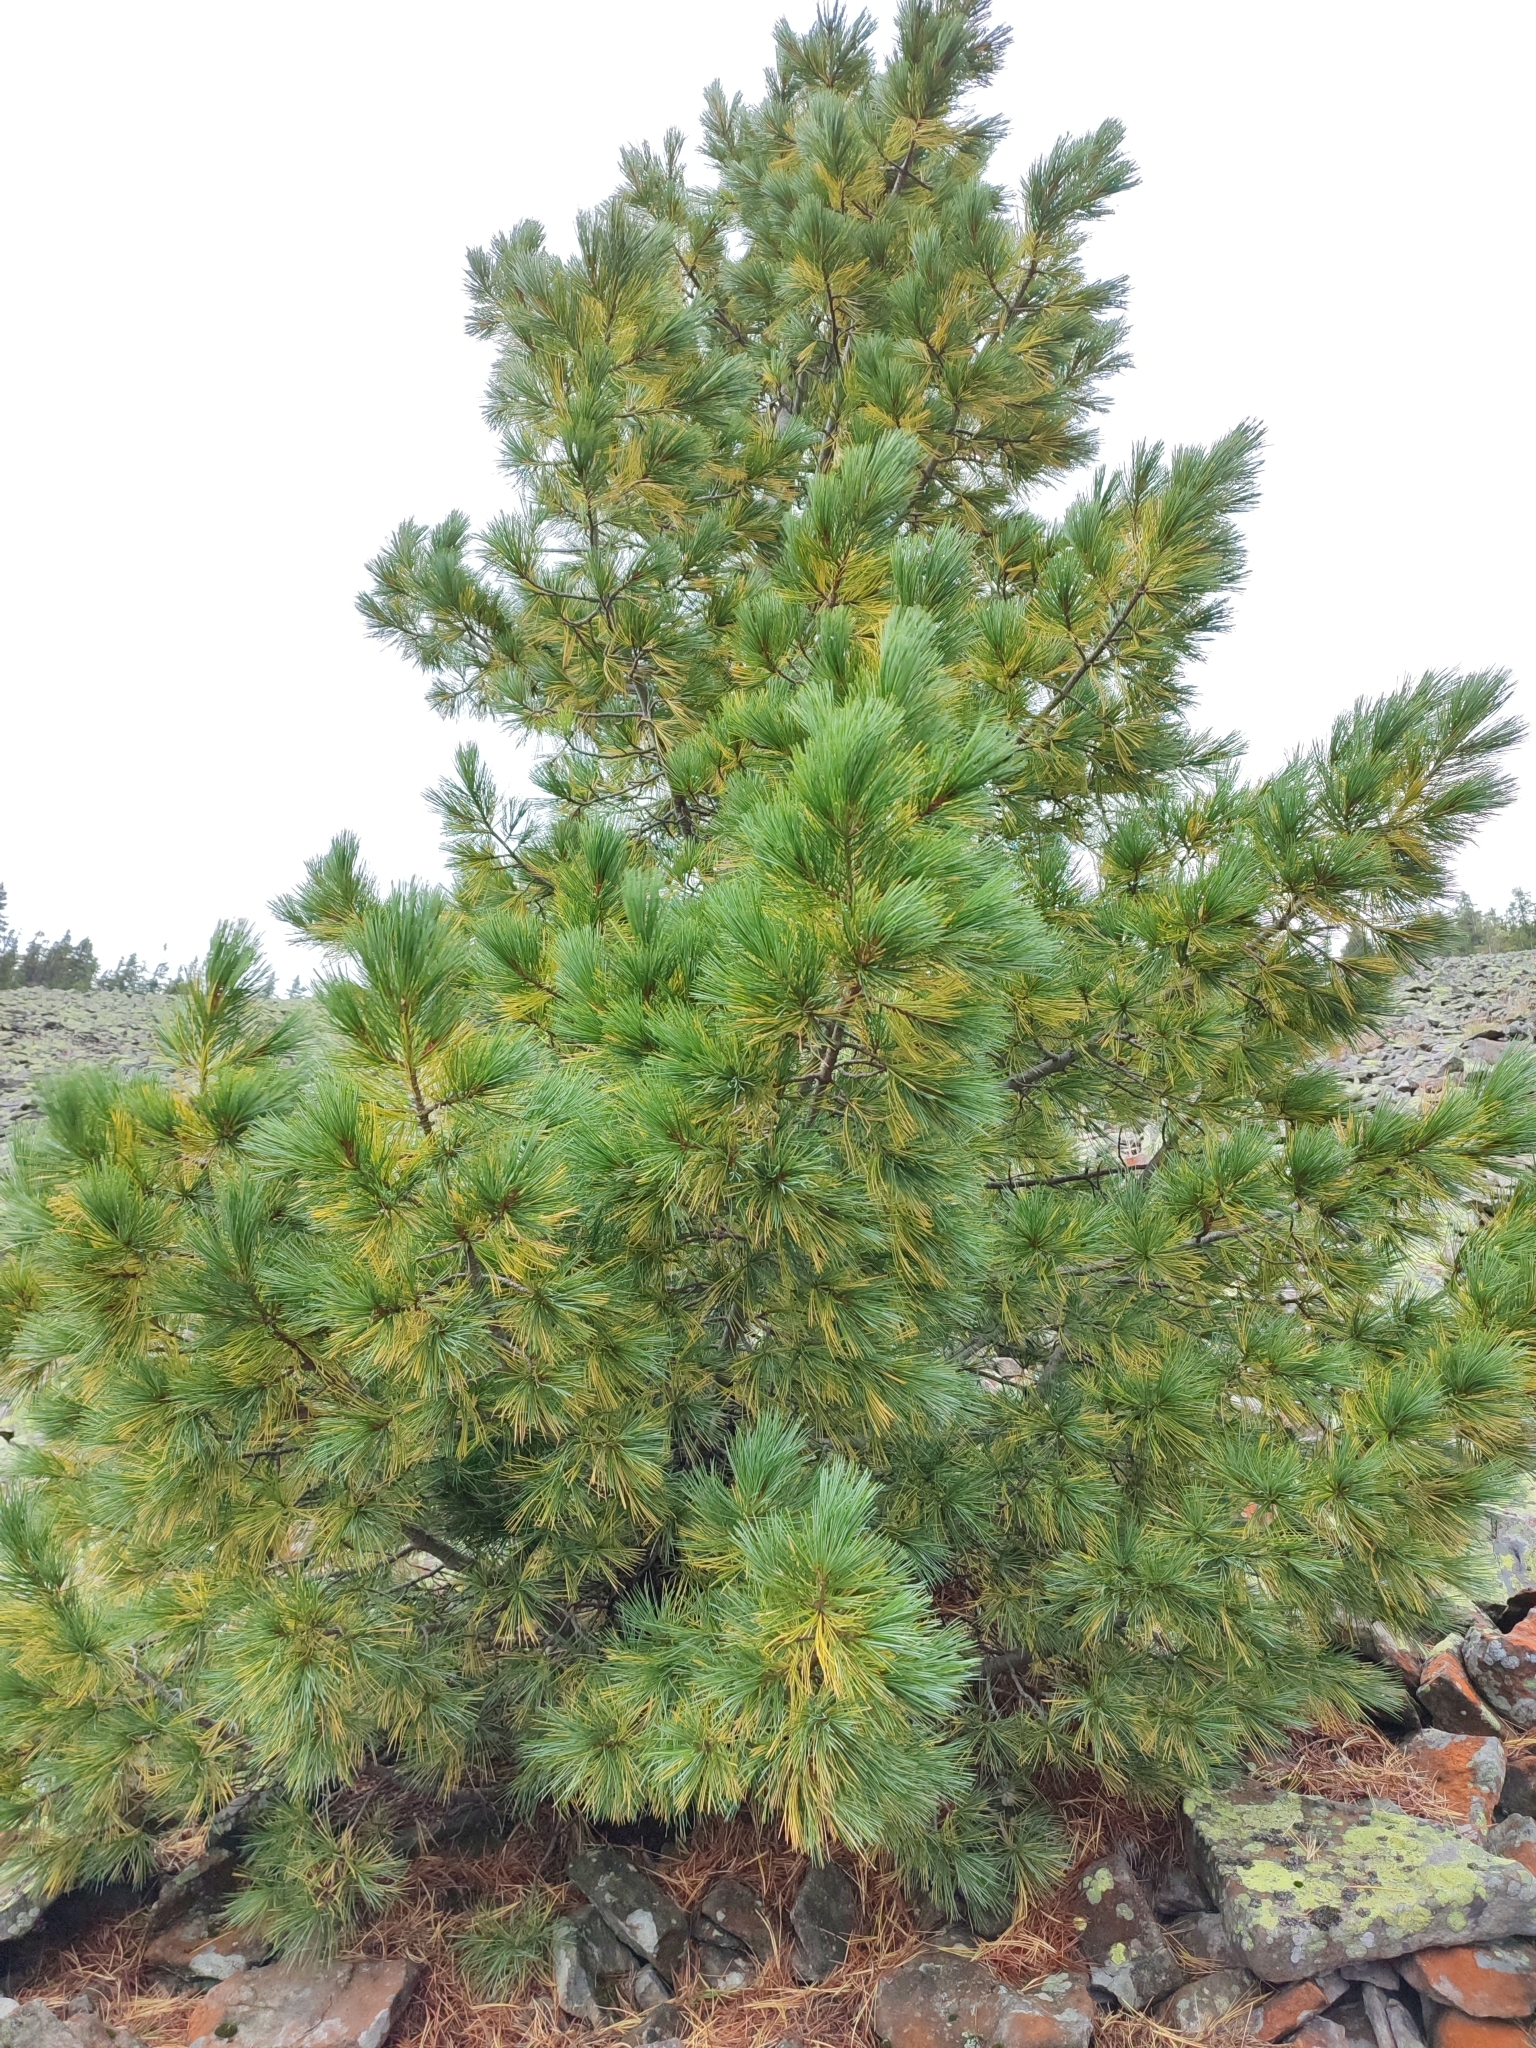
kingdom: Plantae
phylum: Tracheophyta
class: Pinopsida
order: Pinales
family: Pinaceae
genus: Pinus
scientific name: Pinus cembra
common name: Arolla pine
